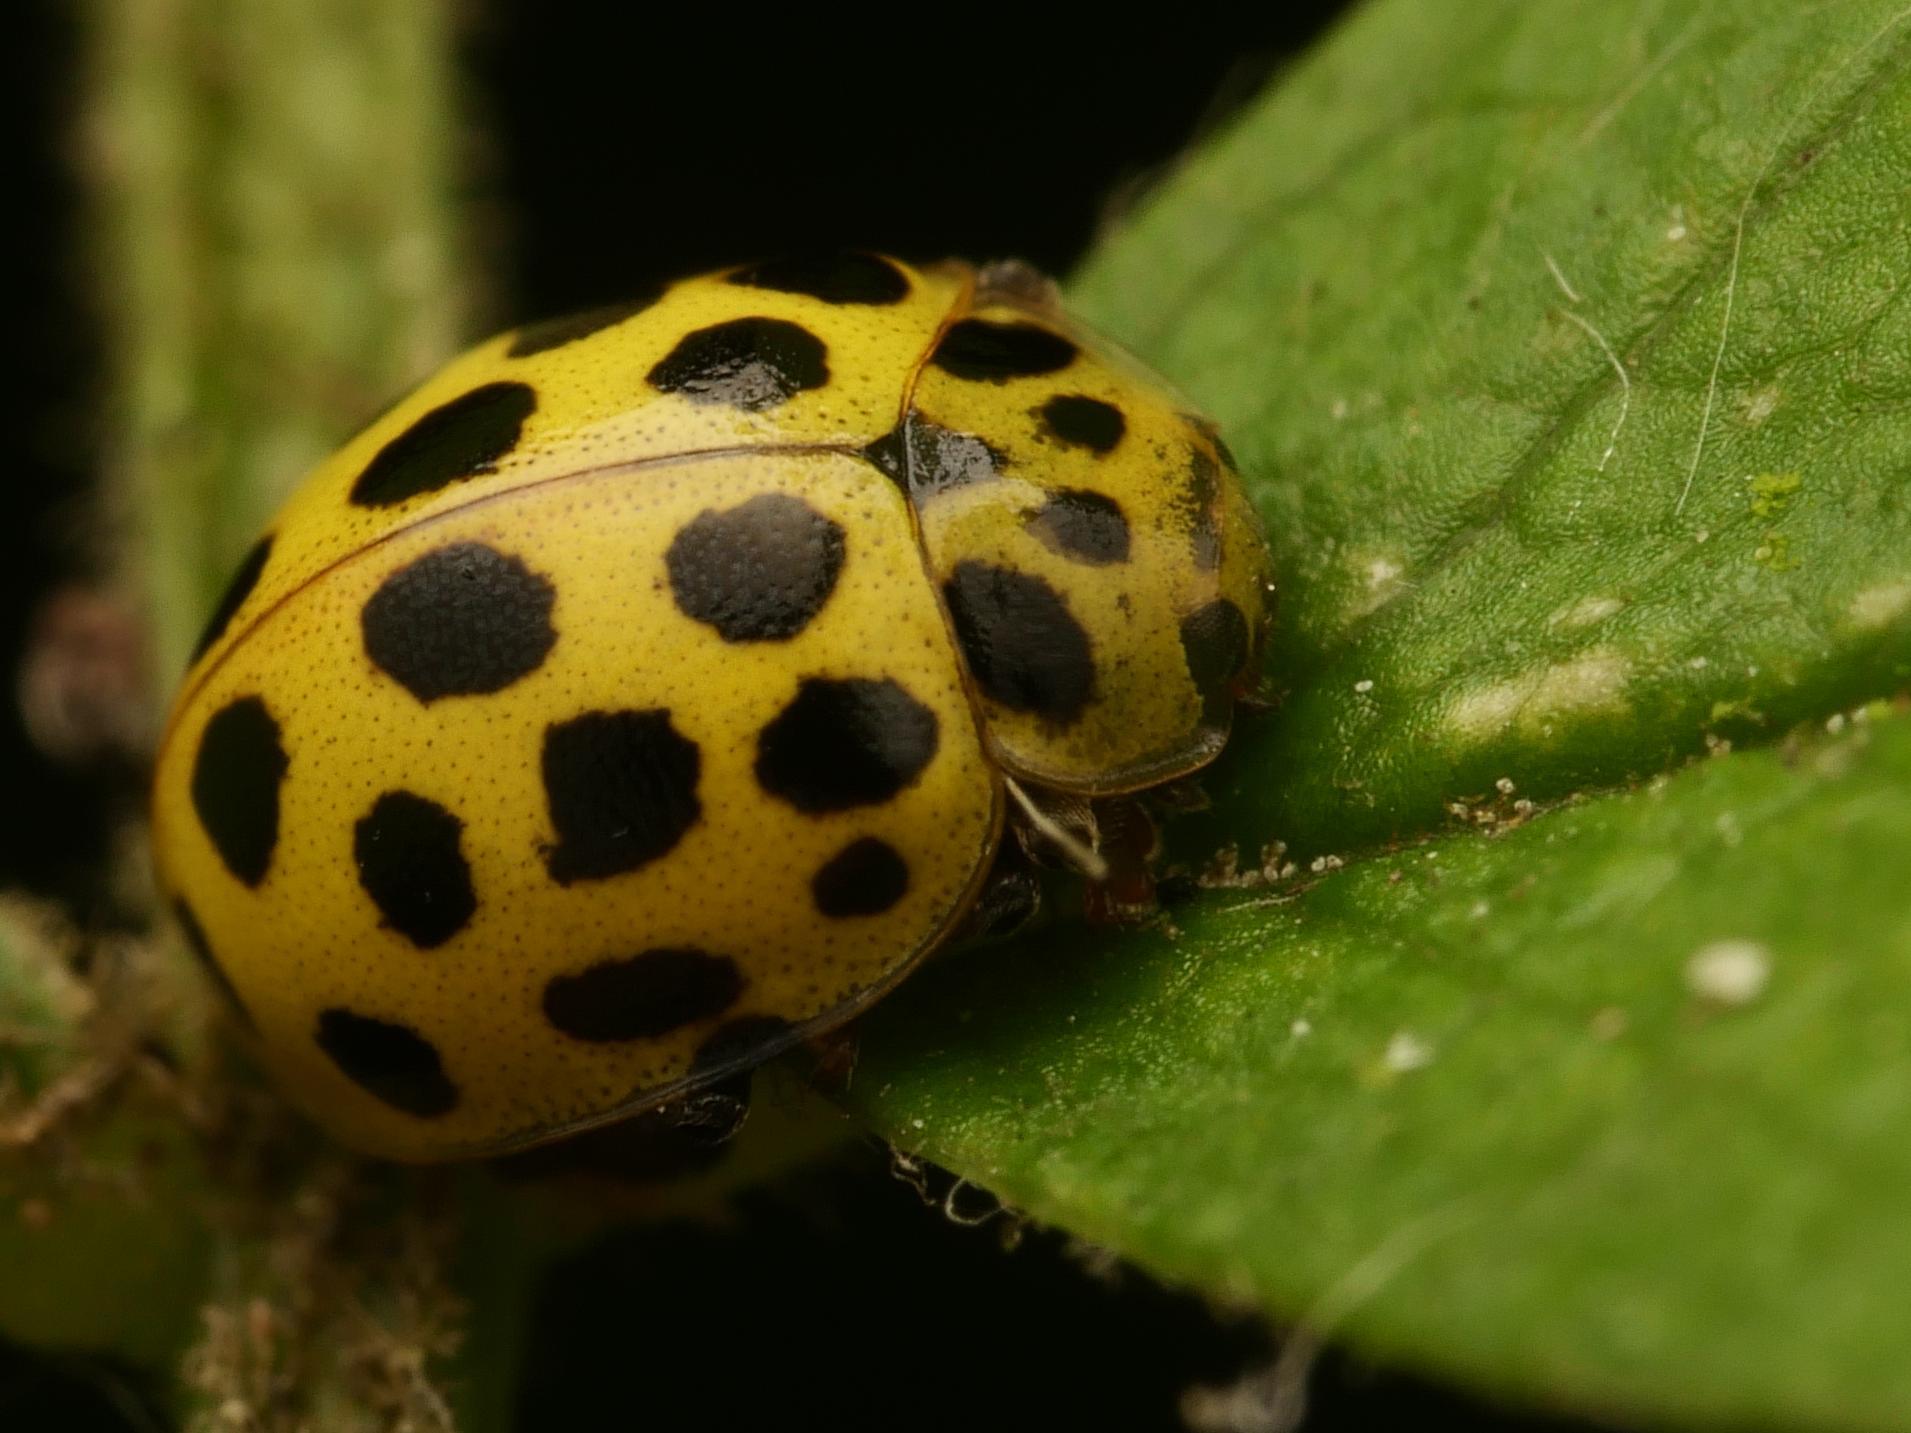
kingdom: Animalia
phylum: Arthropoda
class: Insecta
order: Coleoptera
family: Coccinellidae
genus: Psyllobora
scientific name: Psyllobora vigintiduopunctata
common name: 22-spot ladybird
